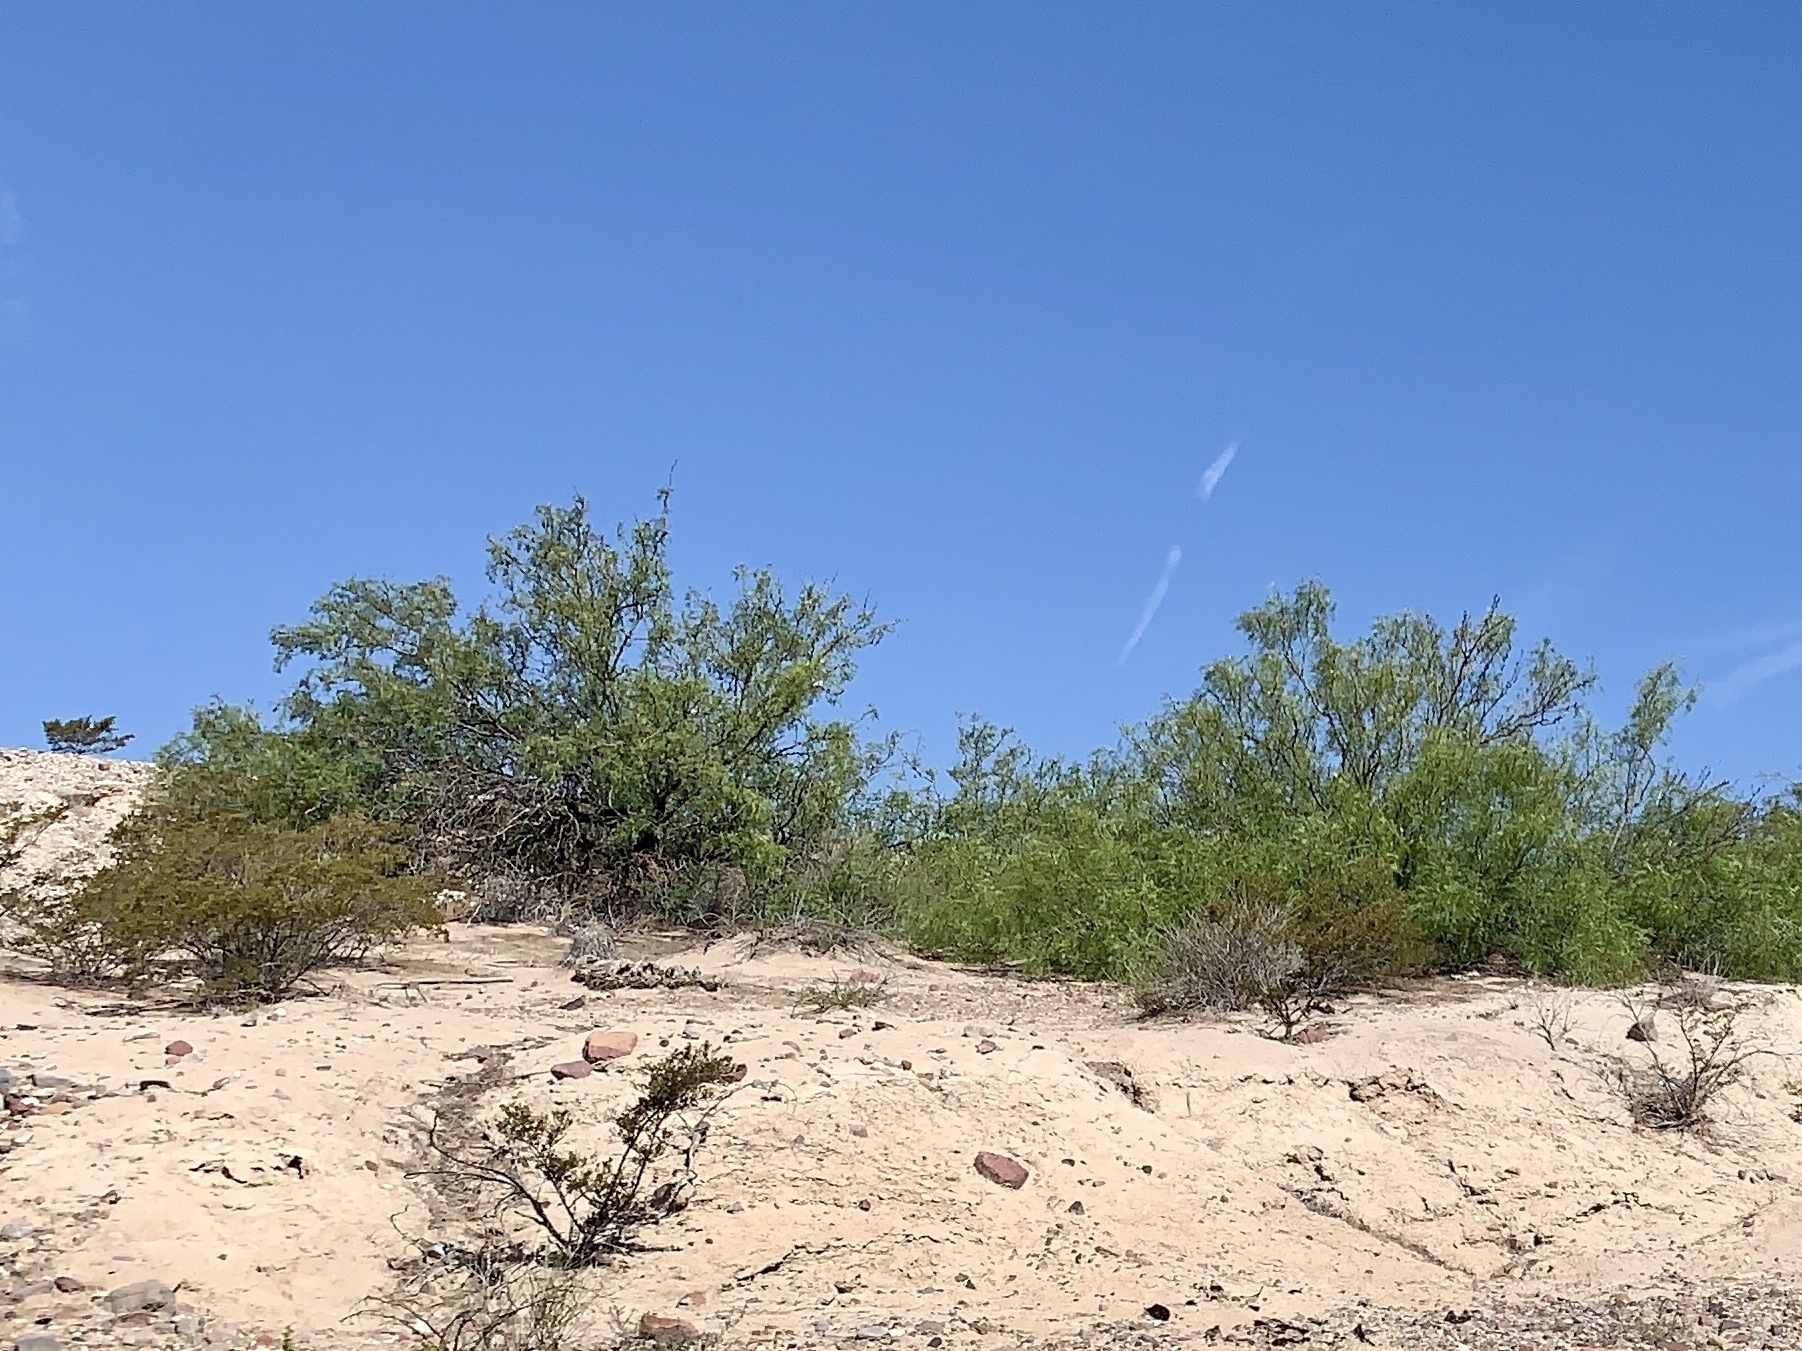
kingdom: Plantae
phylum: Tracheophyta
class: Magnoliopsida
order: Zygophyllales
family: Zygophyllaceae
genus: Larrea
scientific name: Larrea tridentata
